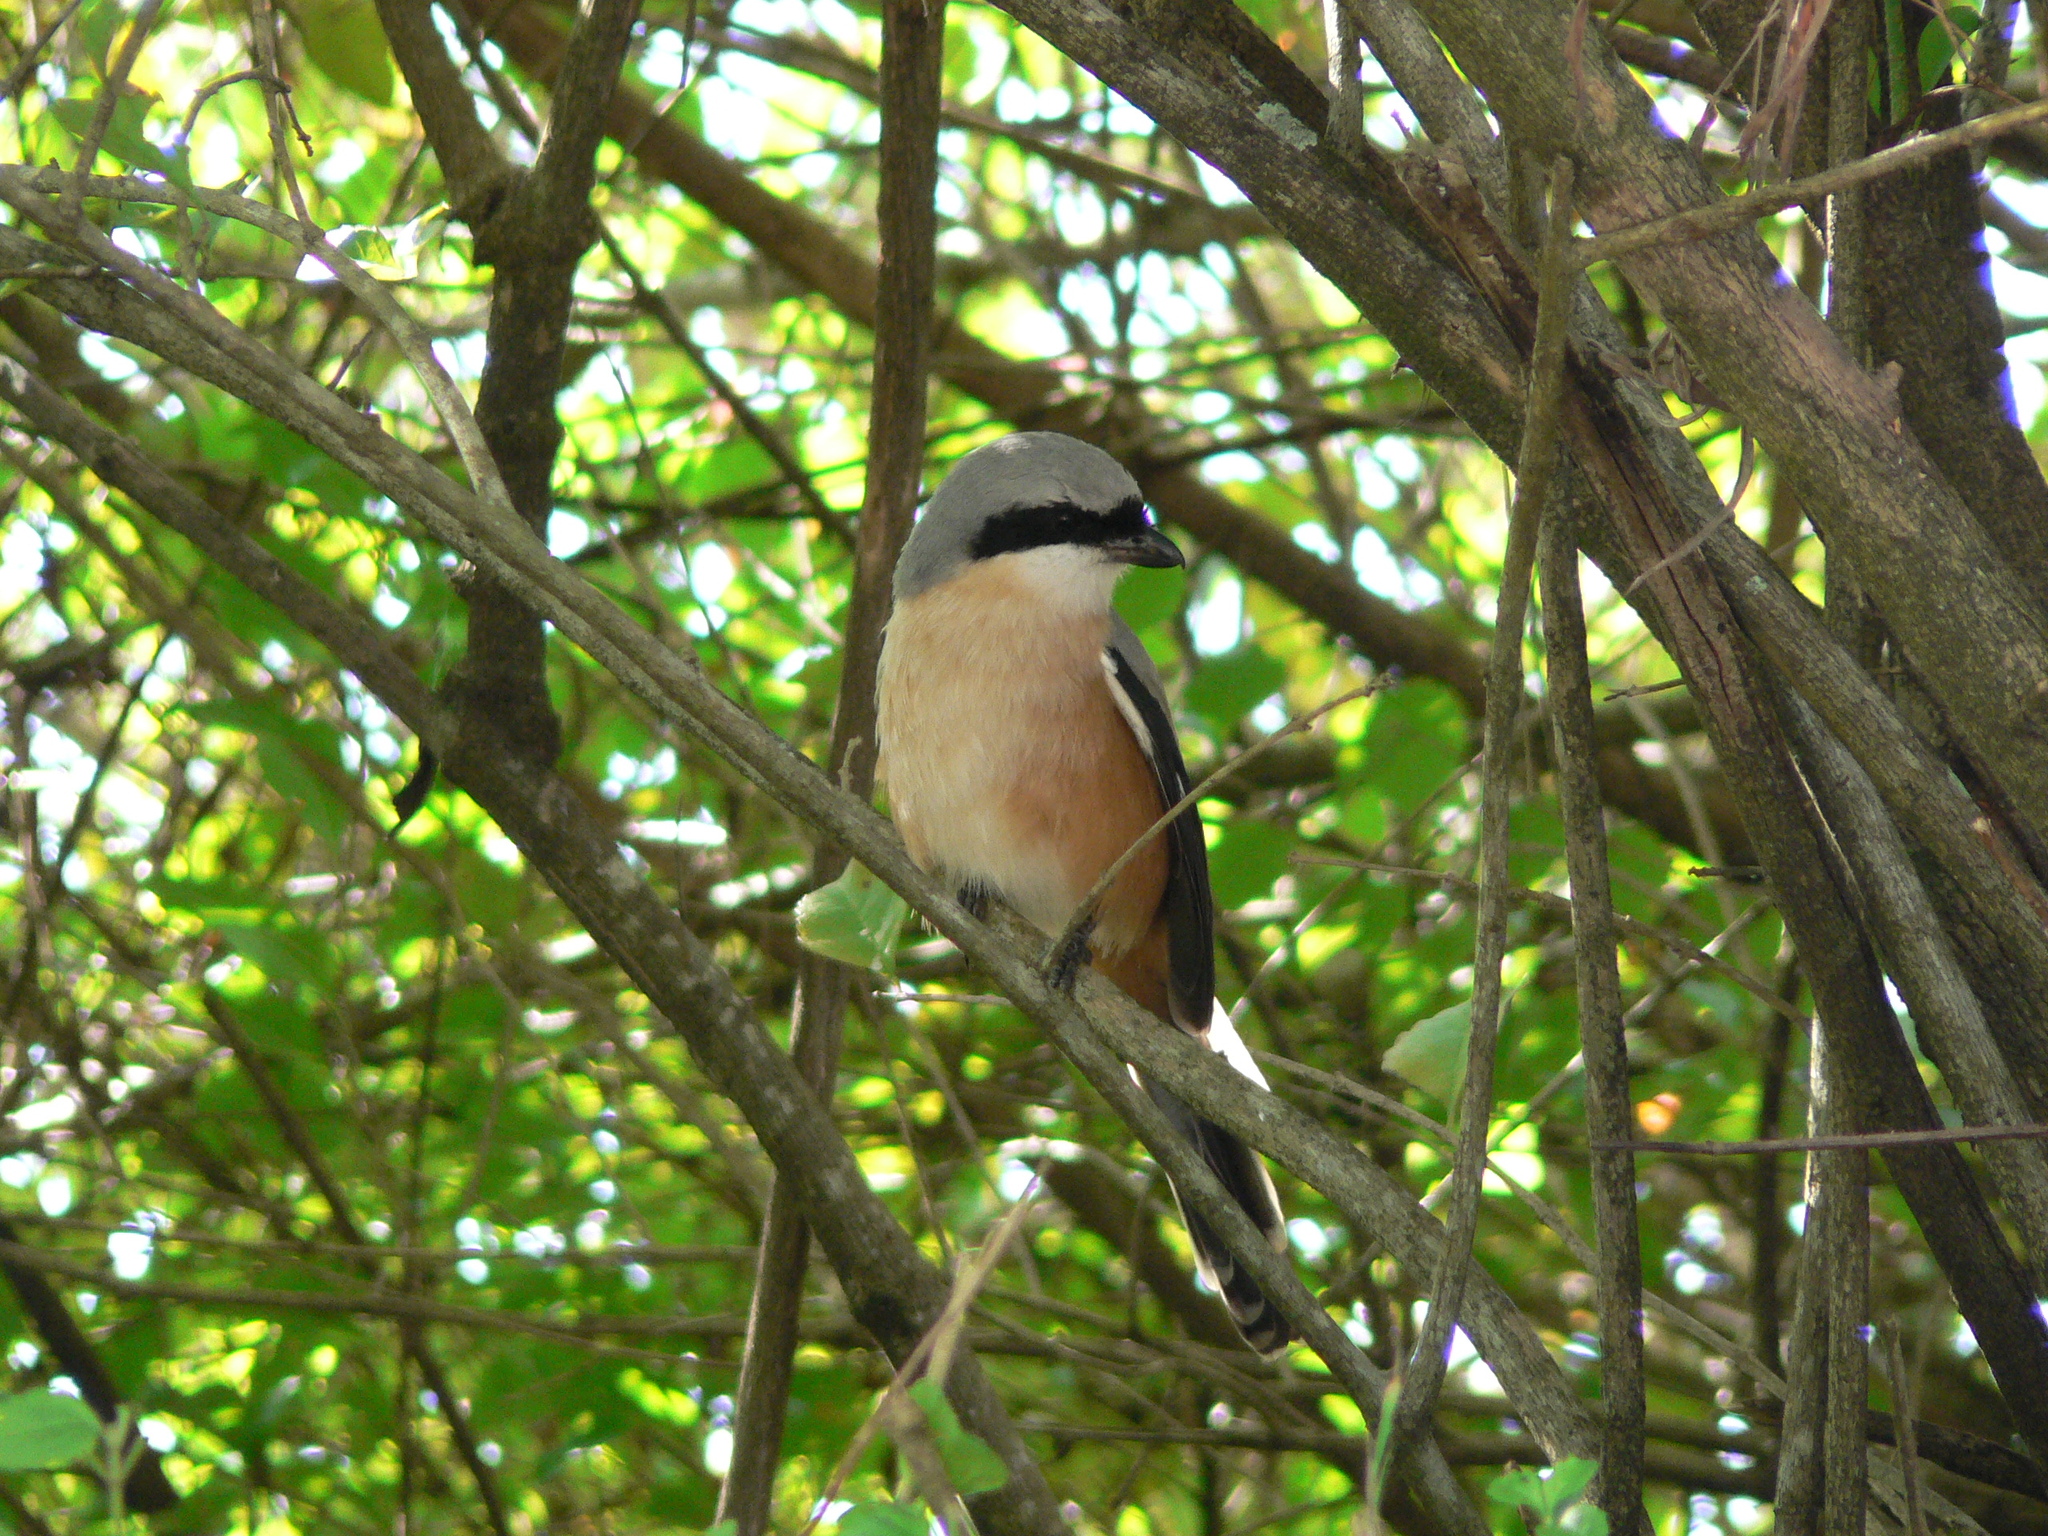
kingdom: Animalia
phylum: Chordata
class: Aves
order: Passeriformes
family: Laniidae
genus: Lanius
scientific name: Lanius schach
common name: Long-tailed shrike
